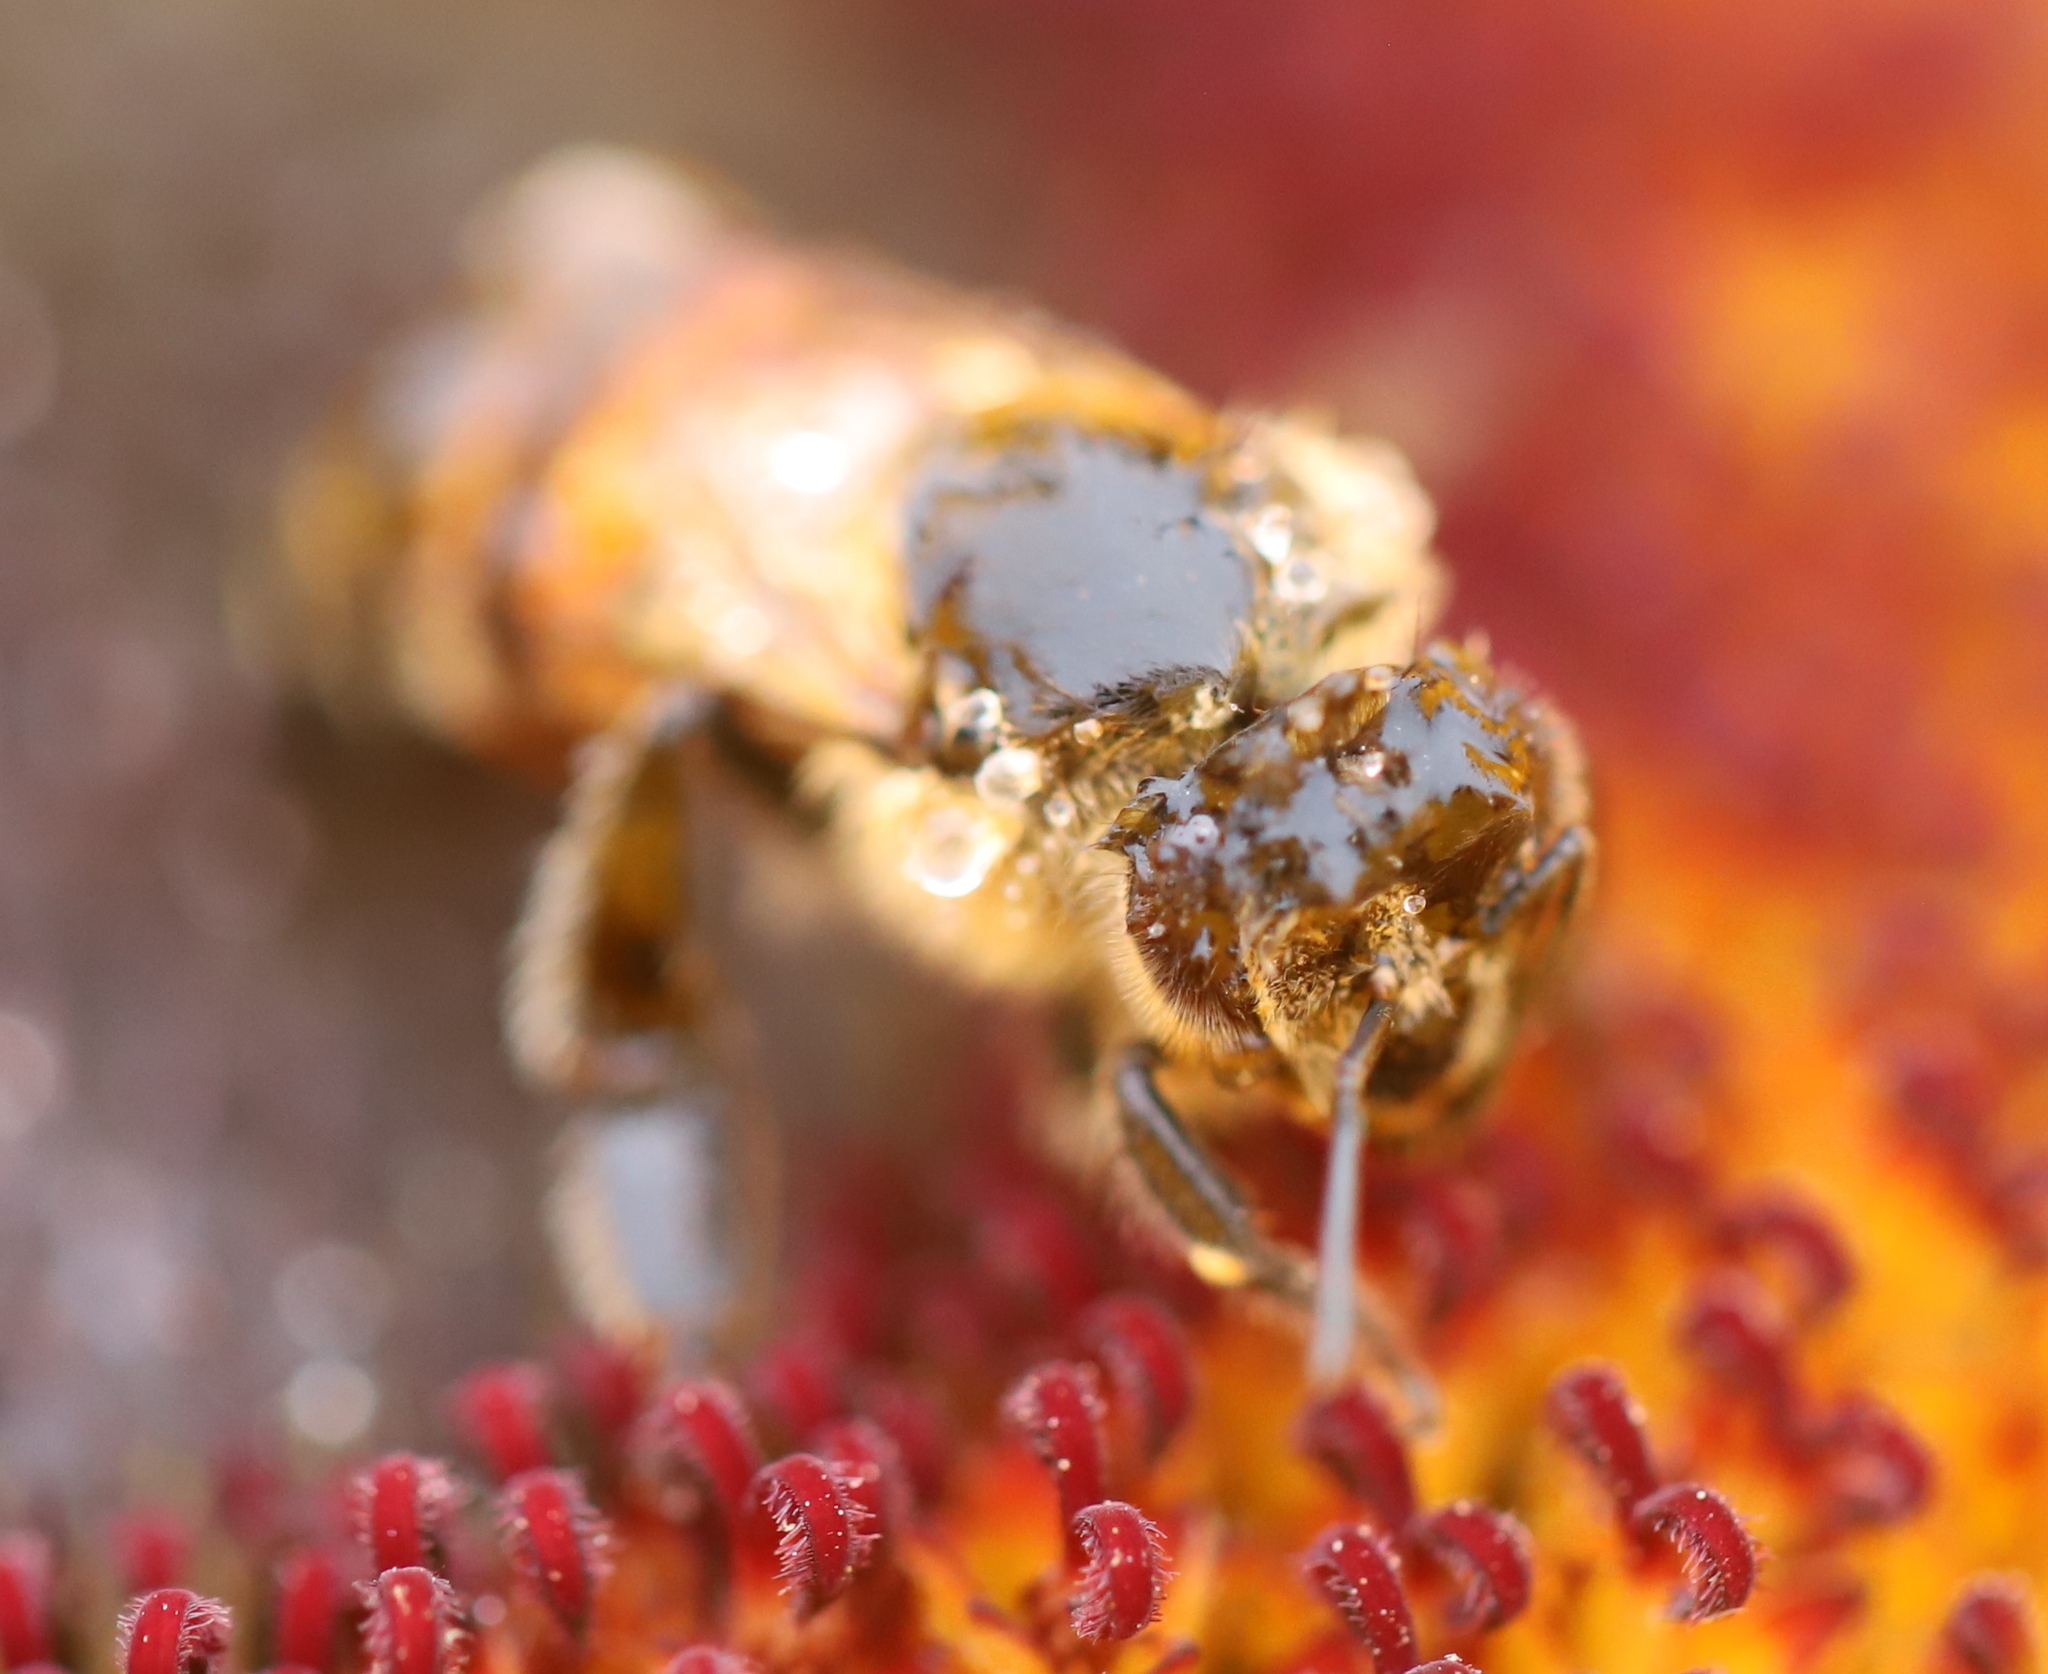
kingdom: Animalia
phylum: Arthropoda
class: Insecta
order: Hymenoptera
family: Apidae
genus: Apis
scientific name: Apis mellifera
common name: Honey bee
